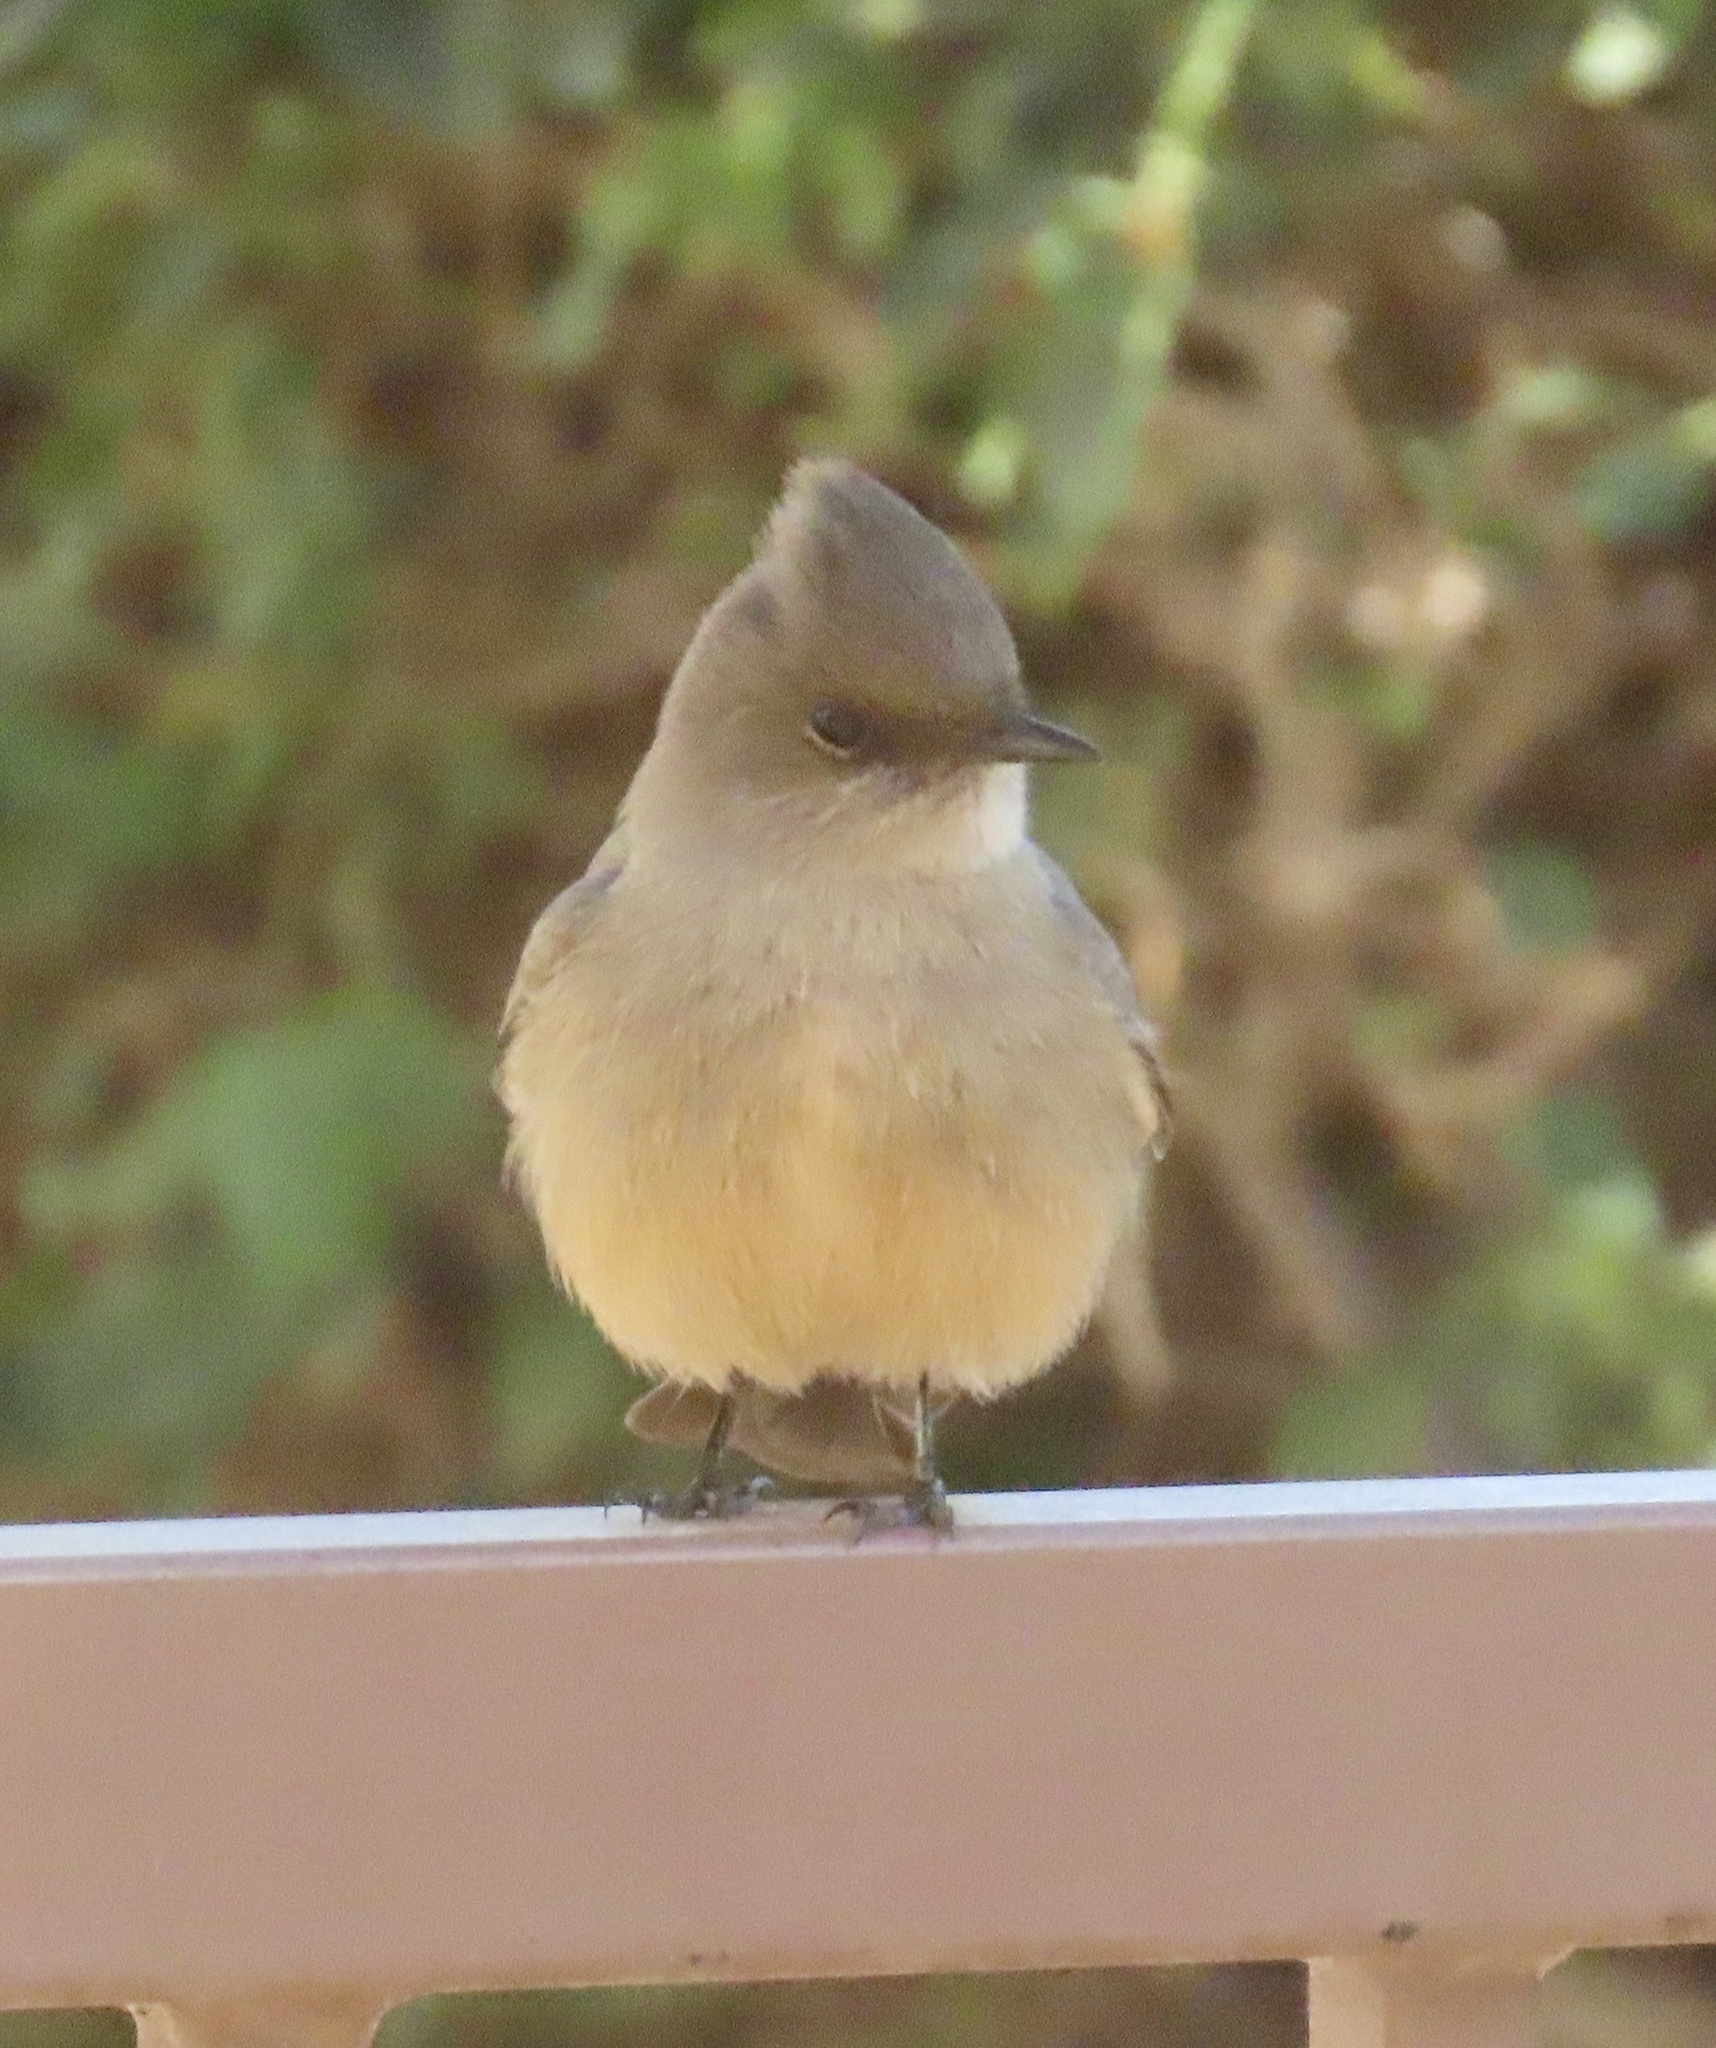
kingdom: Animalia
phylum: Chordata
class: Aves
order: Passeriformes
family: Tyrannidae
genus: Sayornis
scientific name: Sayornis saya
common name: Say's phoebe
